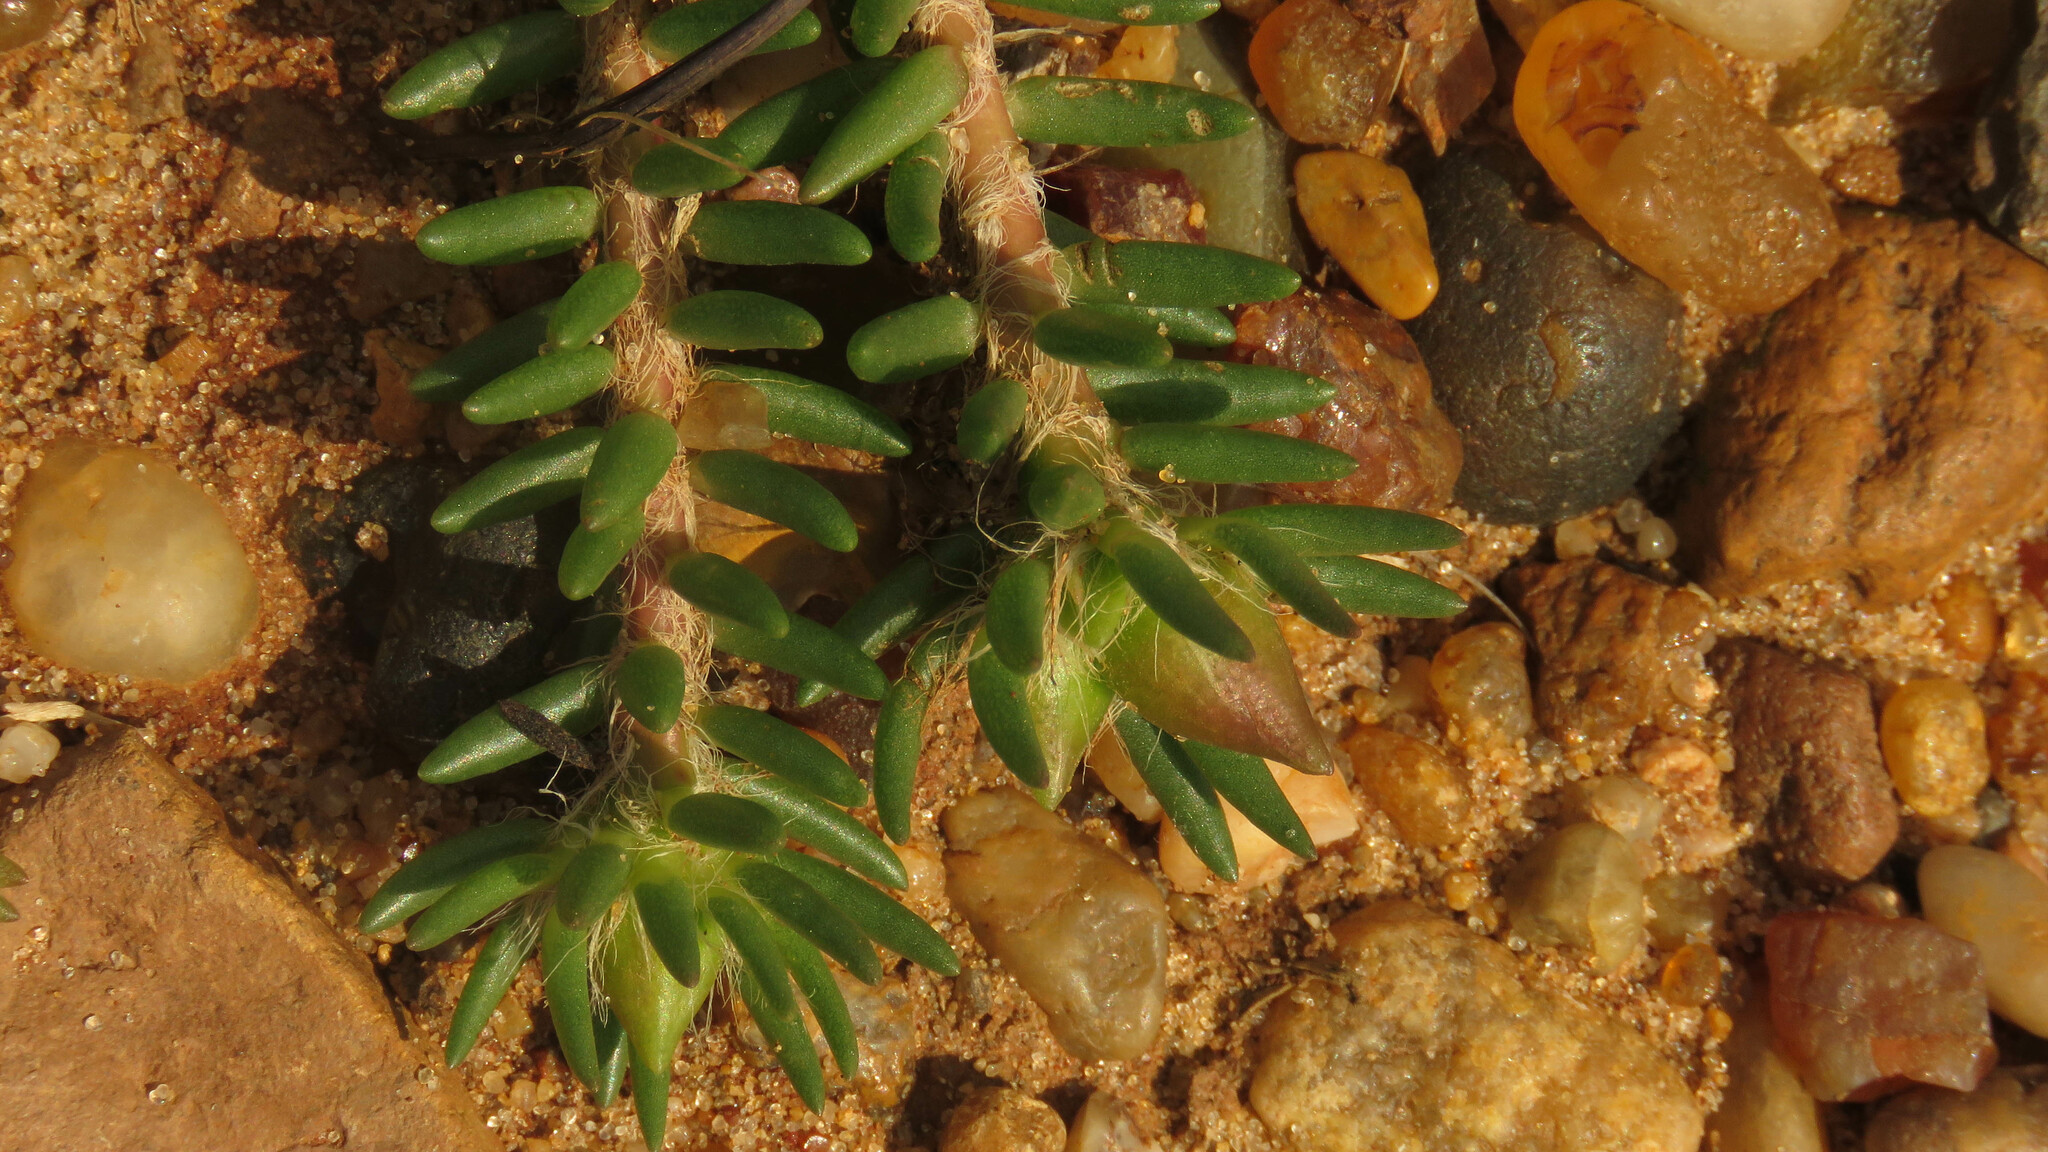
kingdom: Plantae
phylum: Tracheophyta
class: Magnoliopsida
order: Caryophyllales
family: Portulacaceae
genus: Portulaca
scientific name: Portulaca grandiflora
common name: Moss-rose
